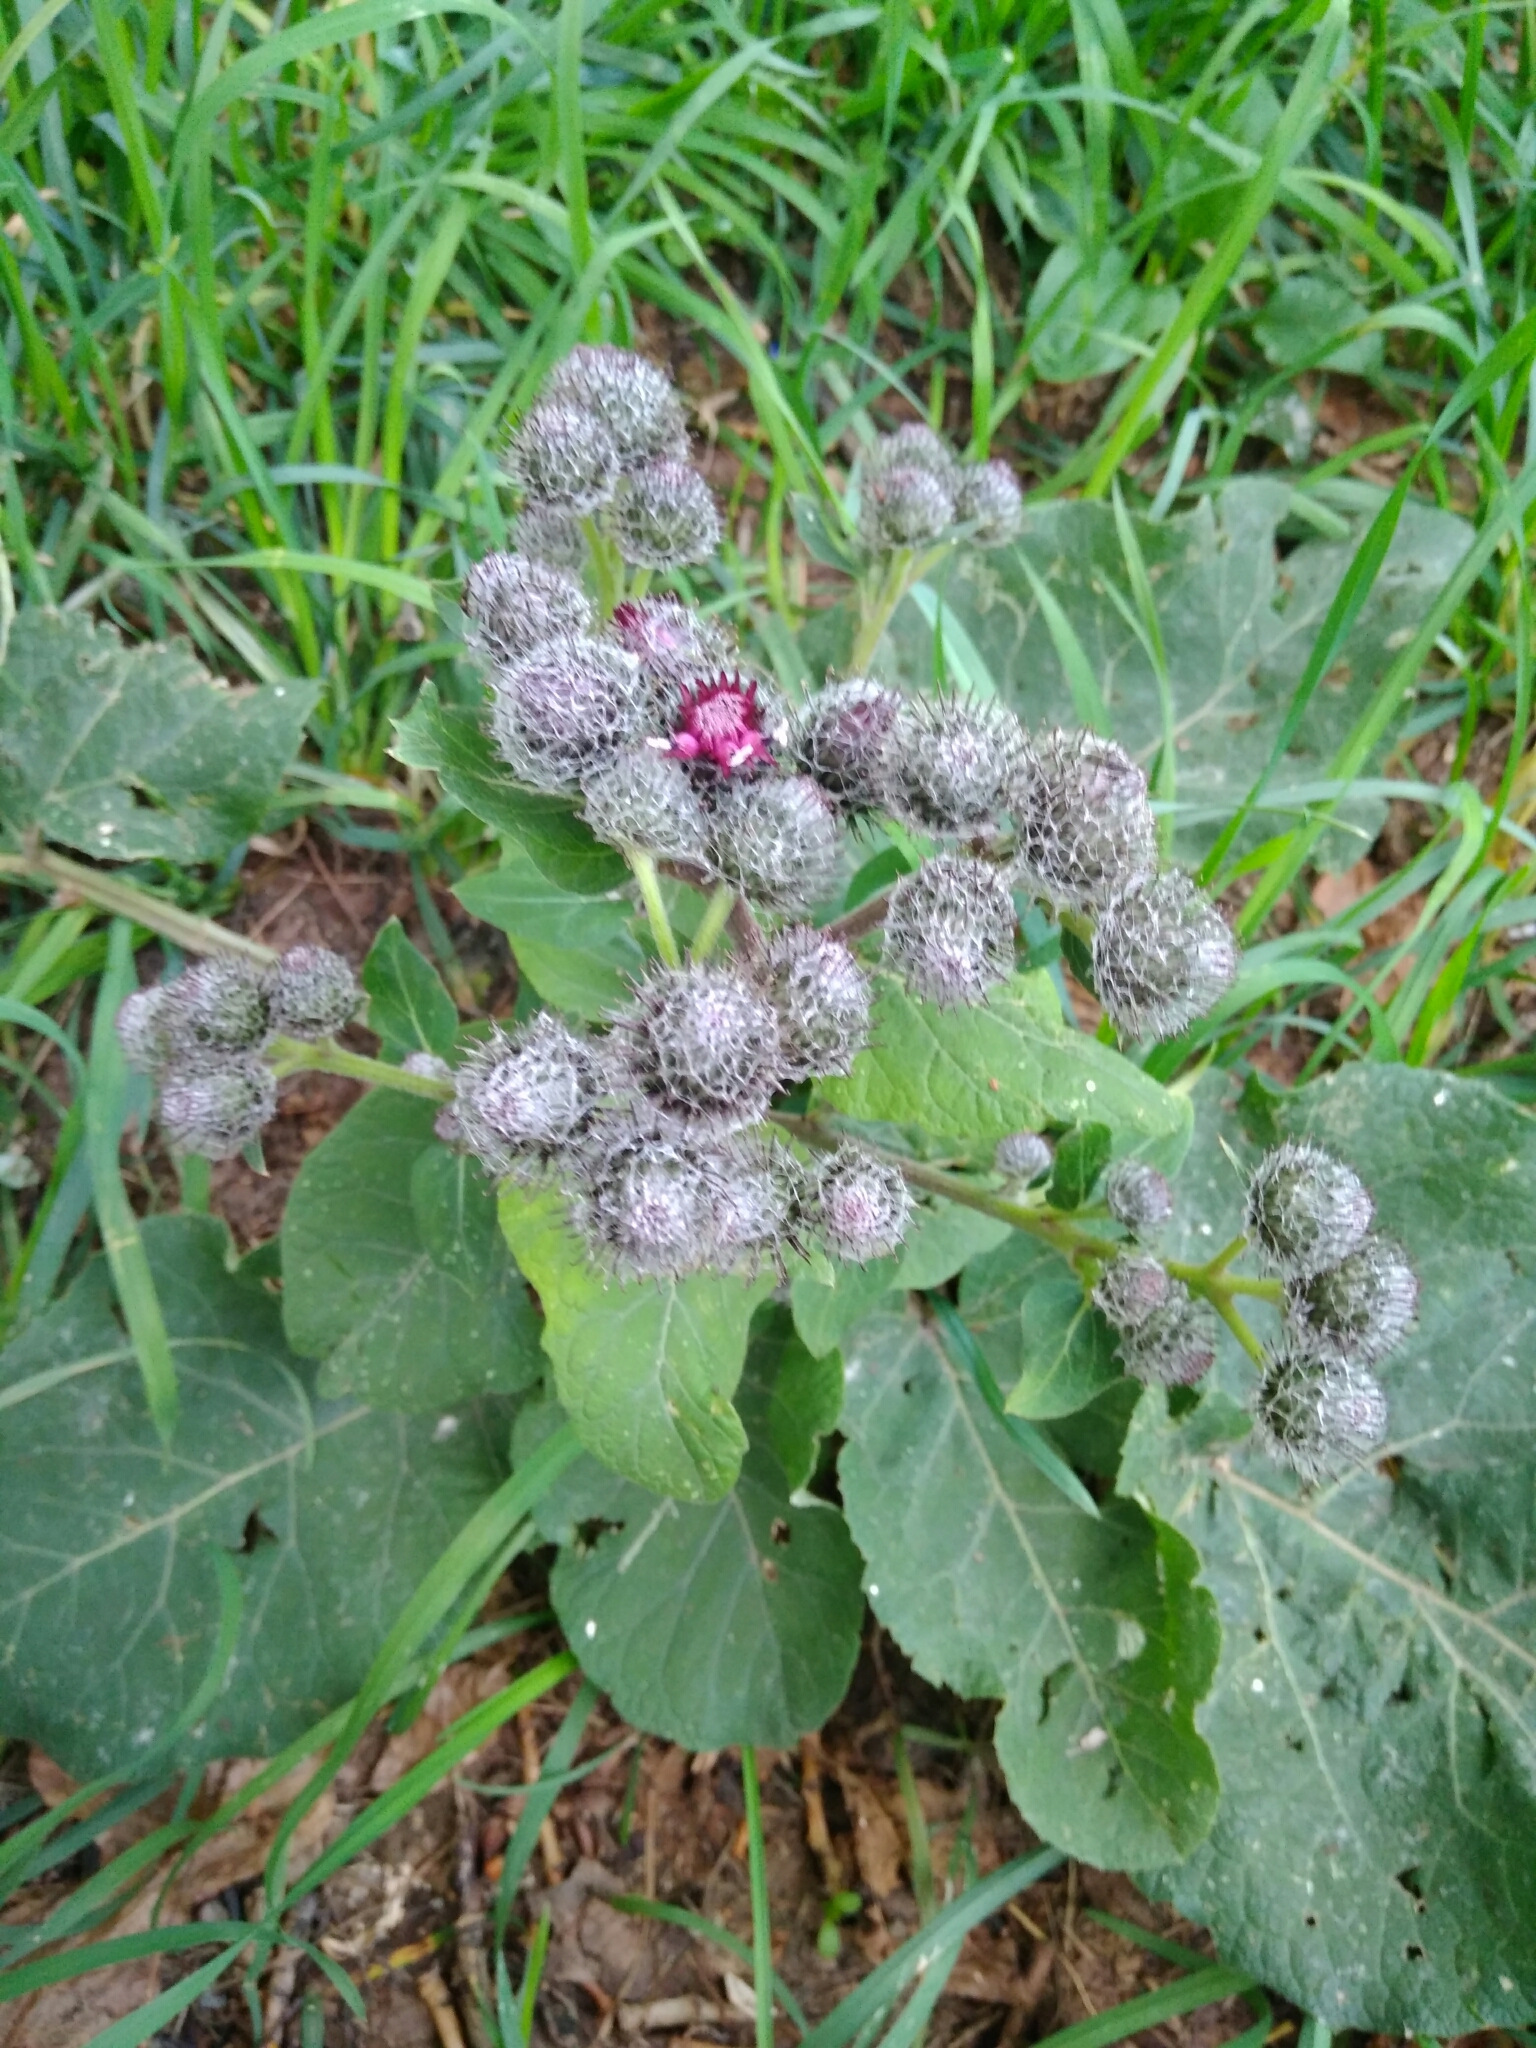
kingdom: Plantae
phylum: Tracheophyta
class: Magnoliopsida
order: Asterales
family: Asteraceae
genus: Arctium
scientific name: Arctium tomentosum
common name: Woolly burdock
